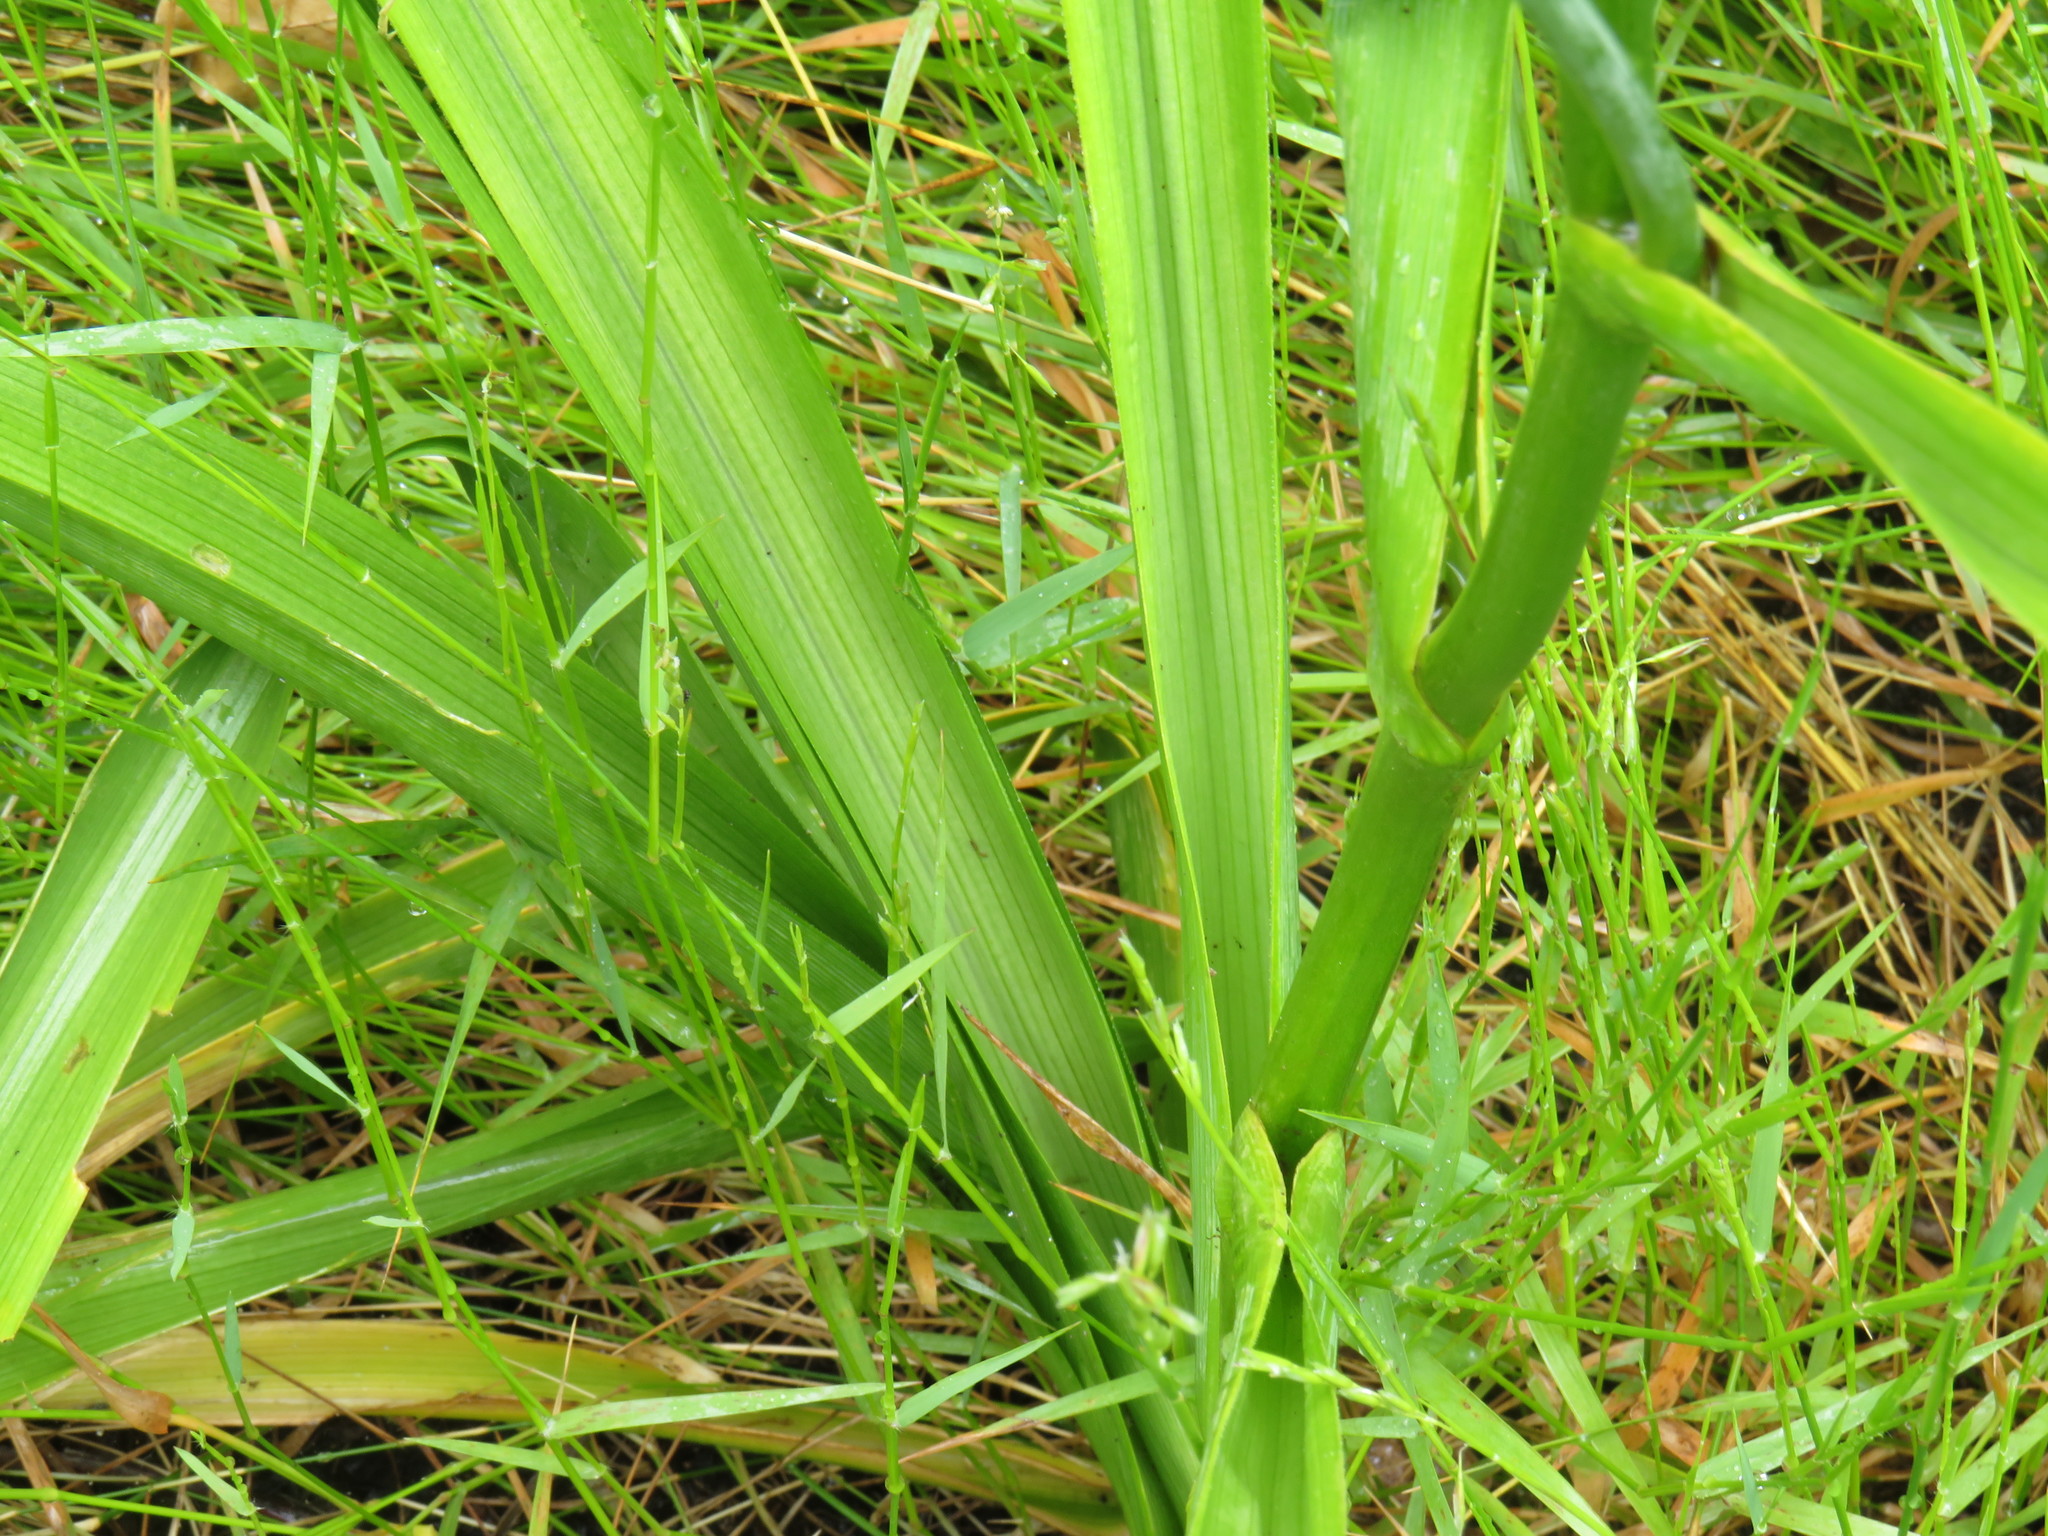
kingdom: Plantae
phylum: Tracheophyta
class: Liliopsida
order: Asparagales
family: Iridaceae
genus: Moraea
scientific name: Moraea ramosissima
